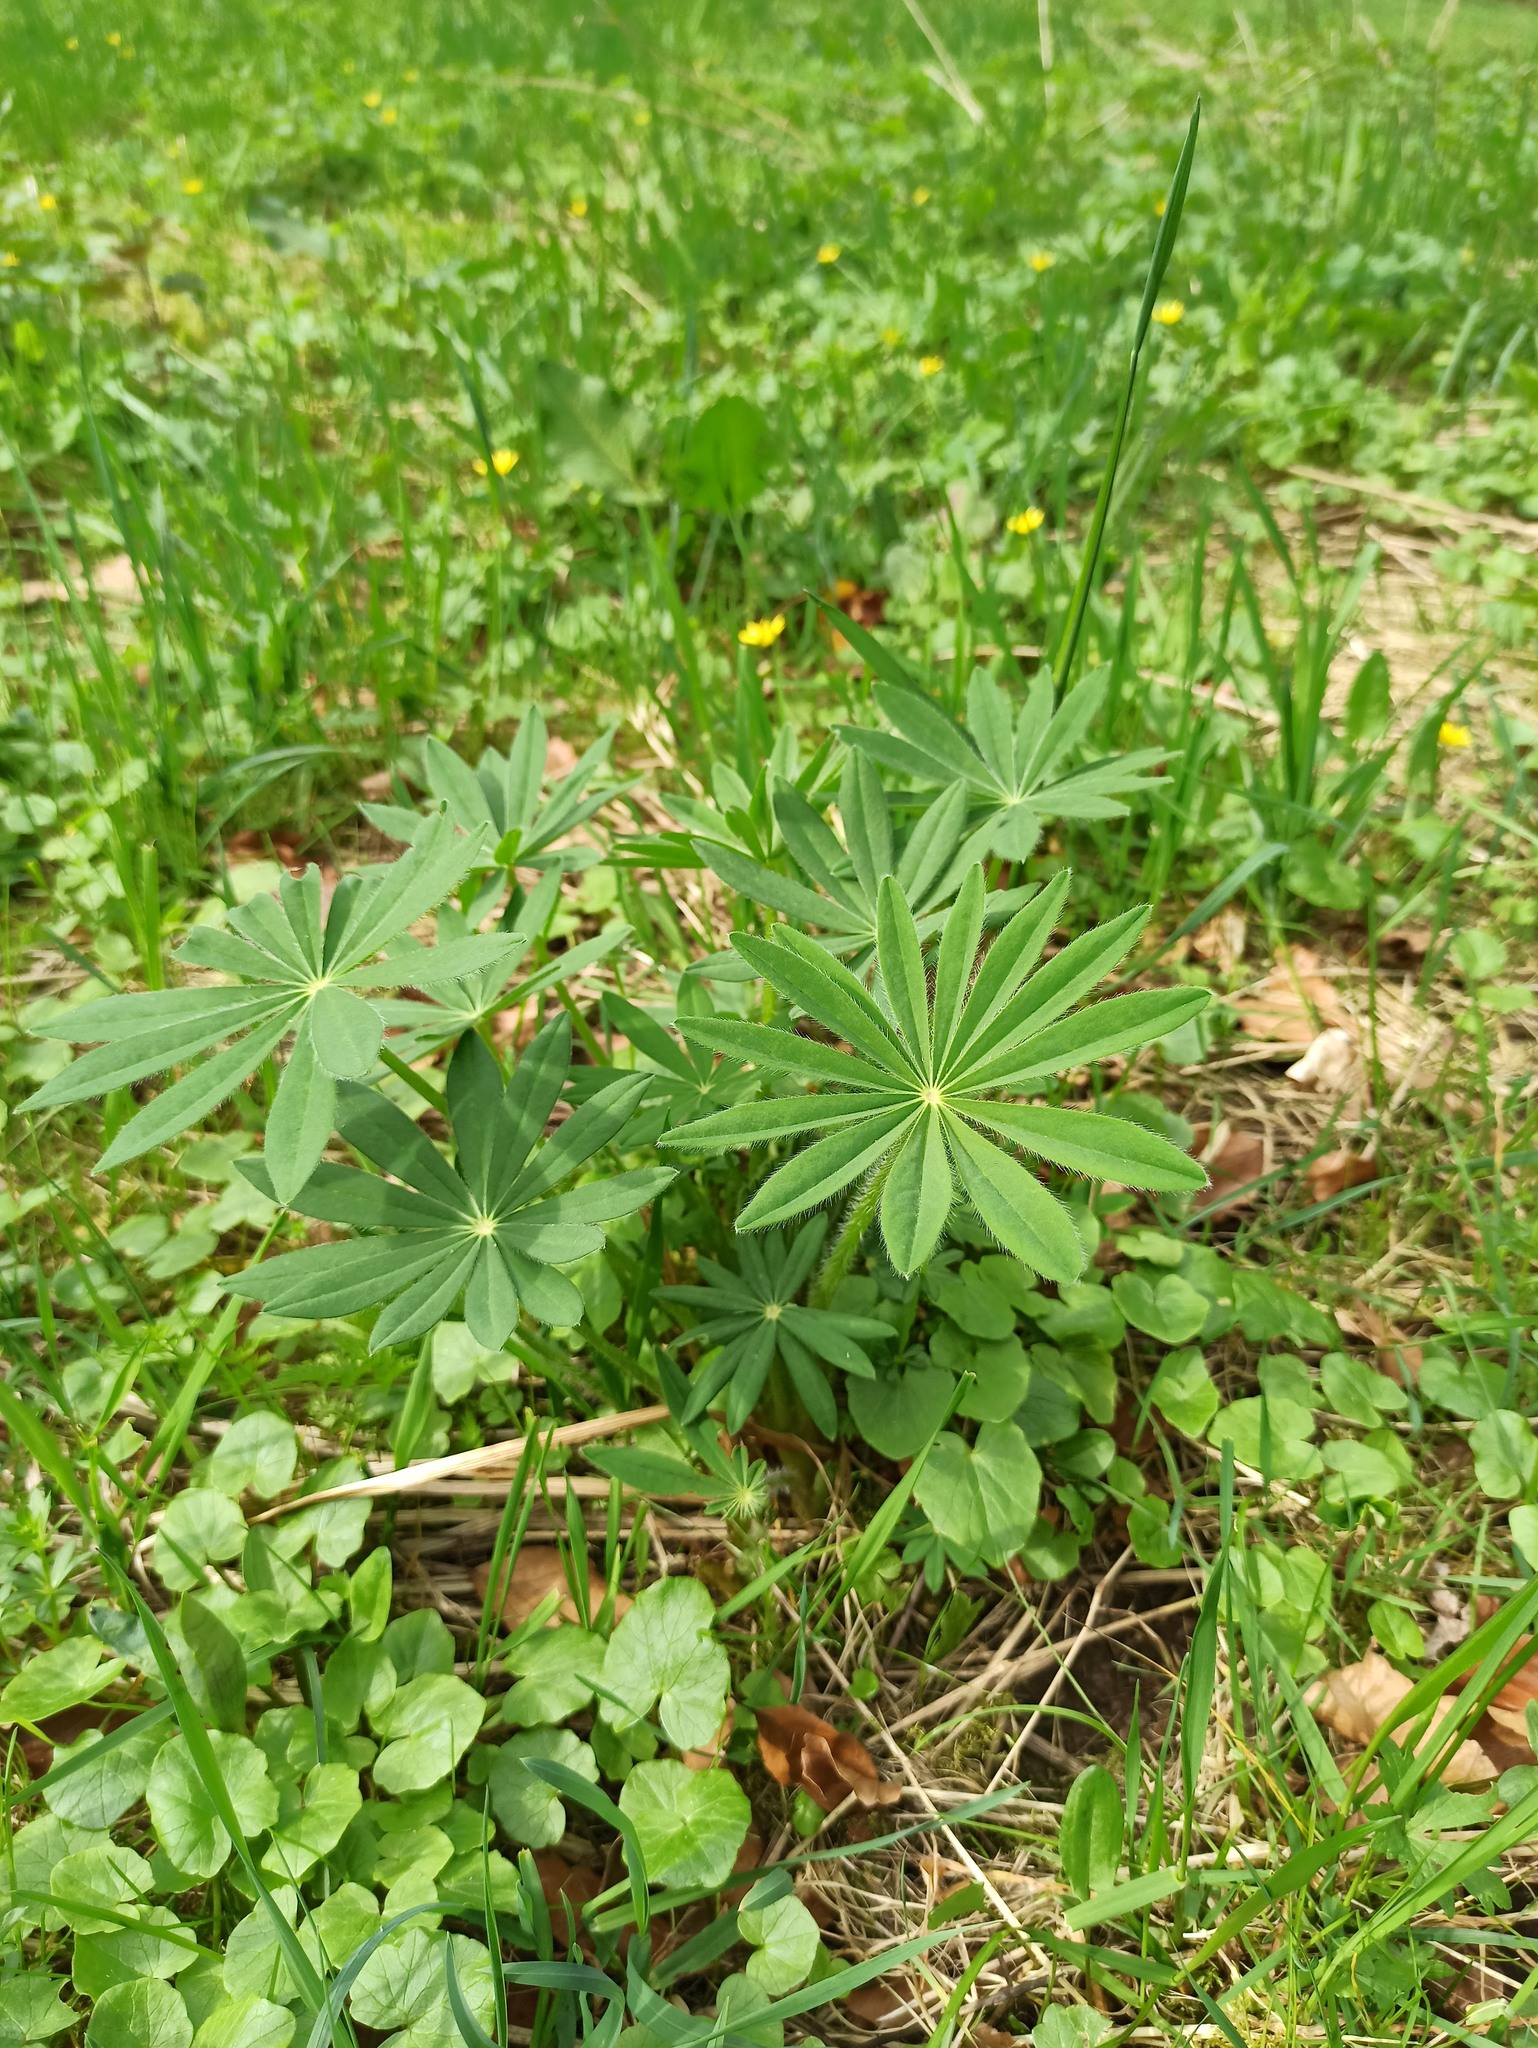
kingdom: Plantae
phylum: Tracheophyta
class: Magnoliopsida
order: Fabales
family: Fabaceae
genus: Lupinus
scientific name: Lupinus polyphyllus
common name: Garden lupin
